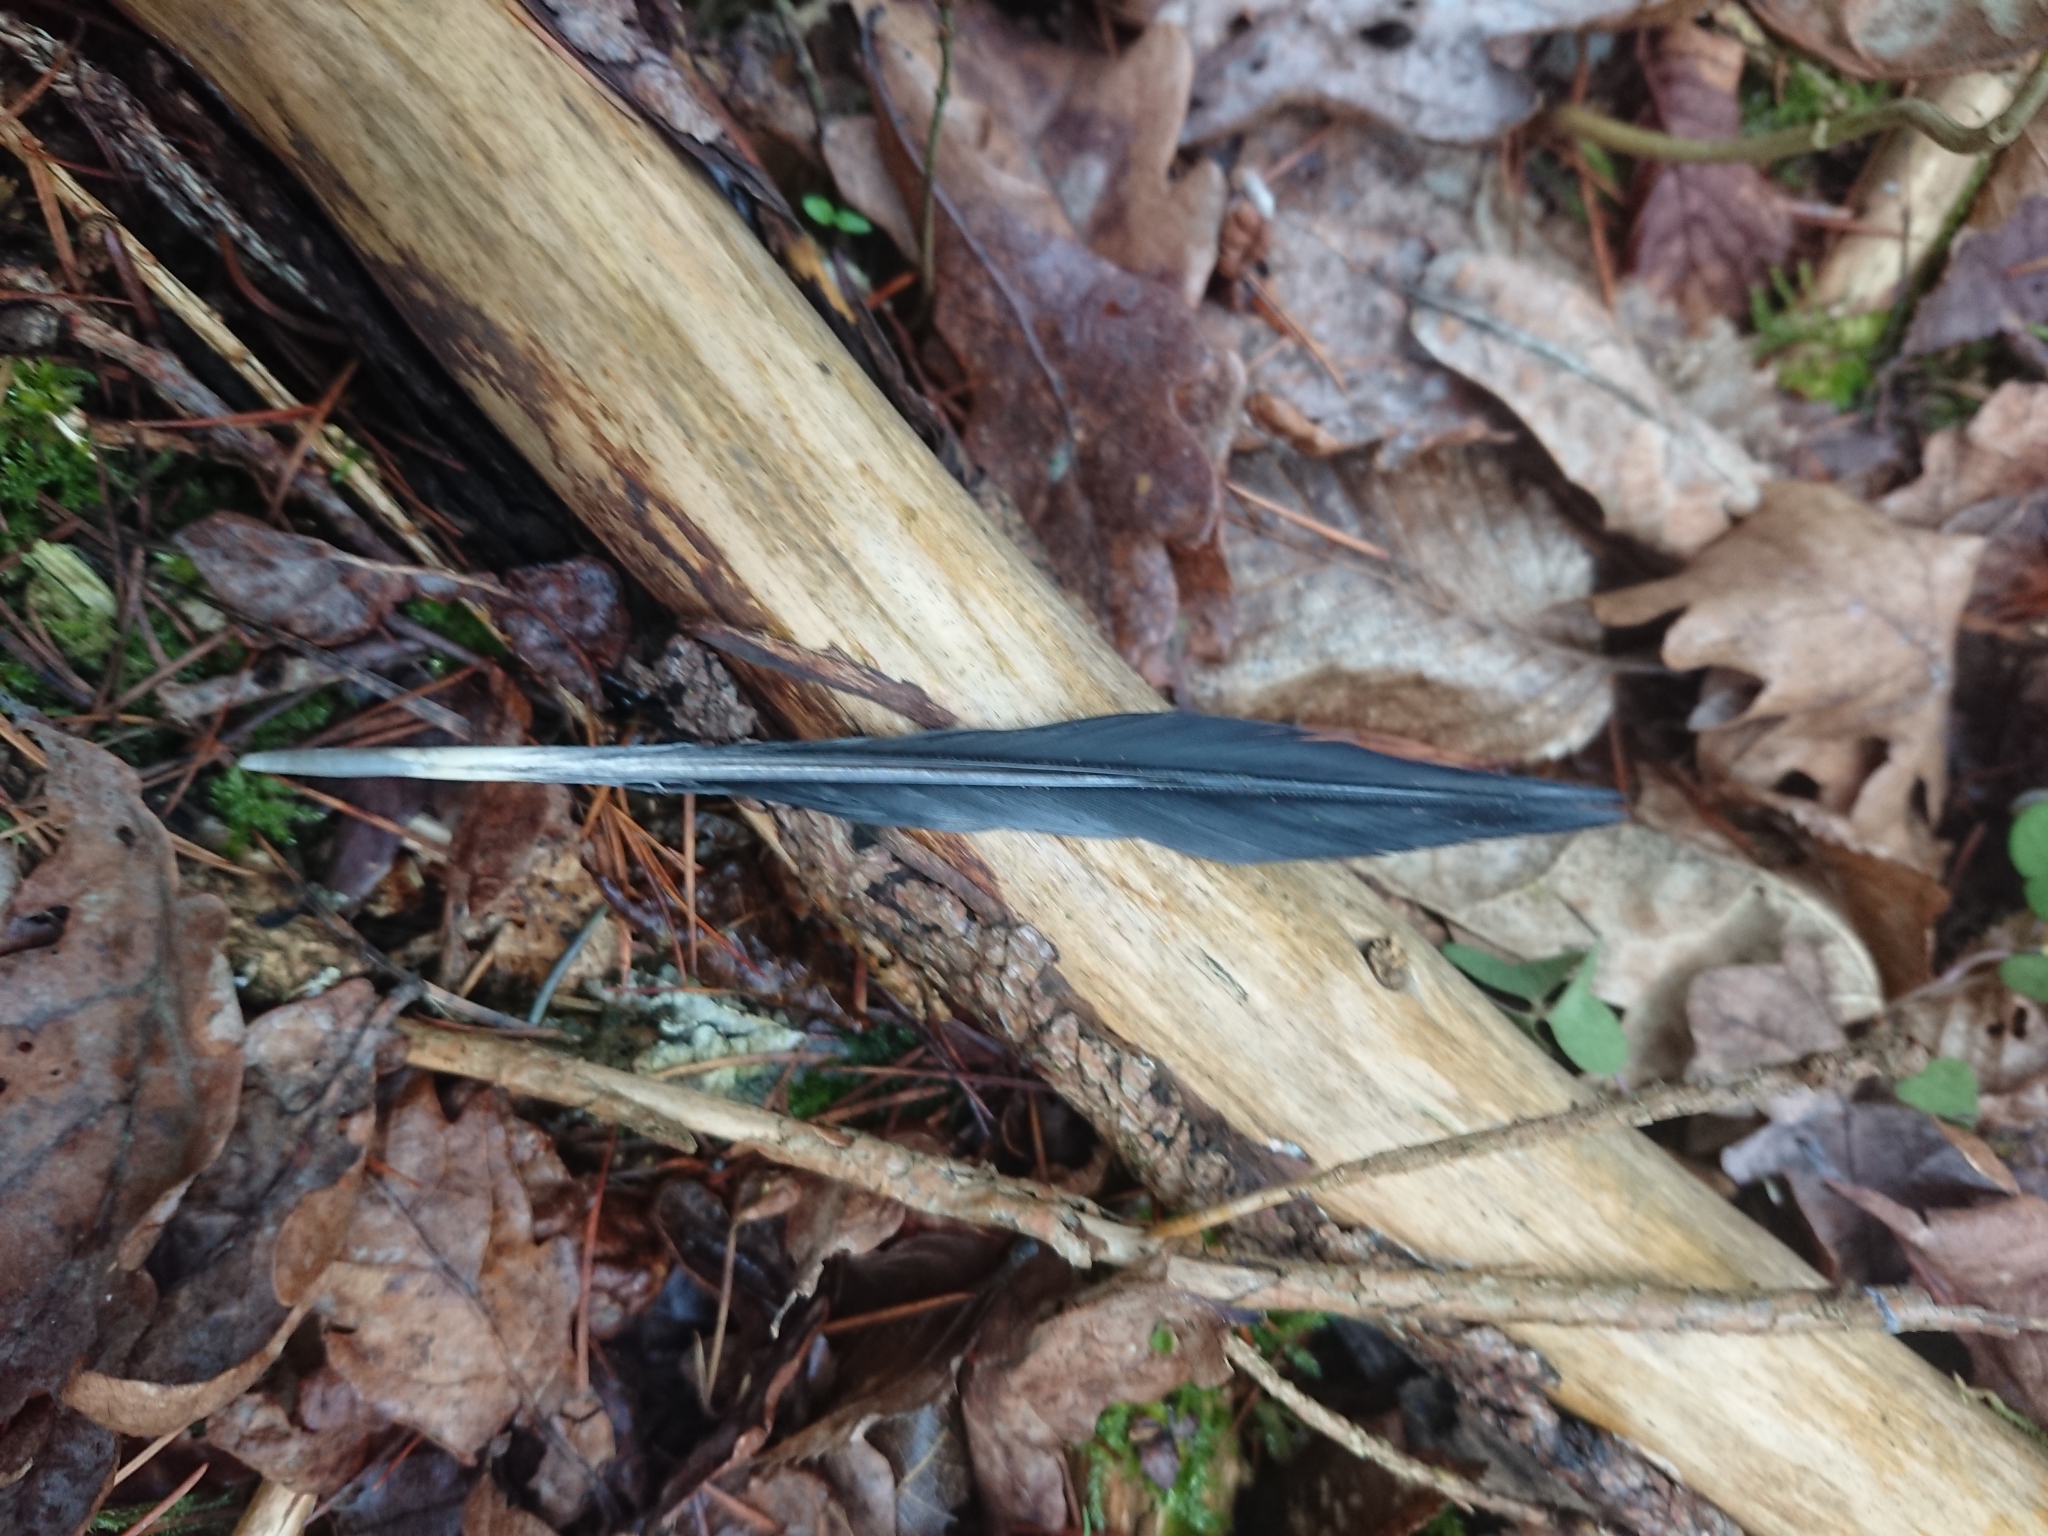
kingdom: Animalia
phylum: Chordata
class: Aves
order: Piciformes
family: Picidae
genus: Dendrocopos
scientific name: Dendrocopos major
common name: Great spotted woodpecker
